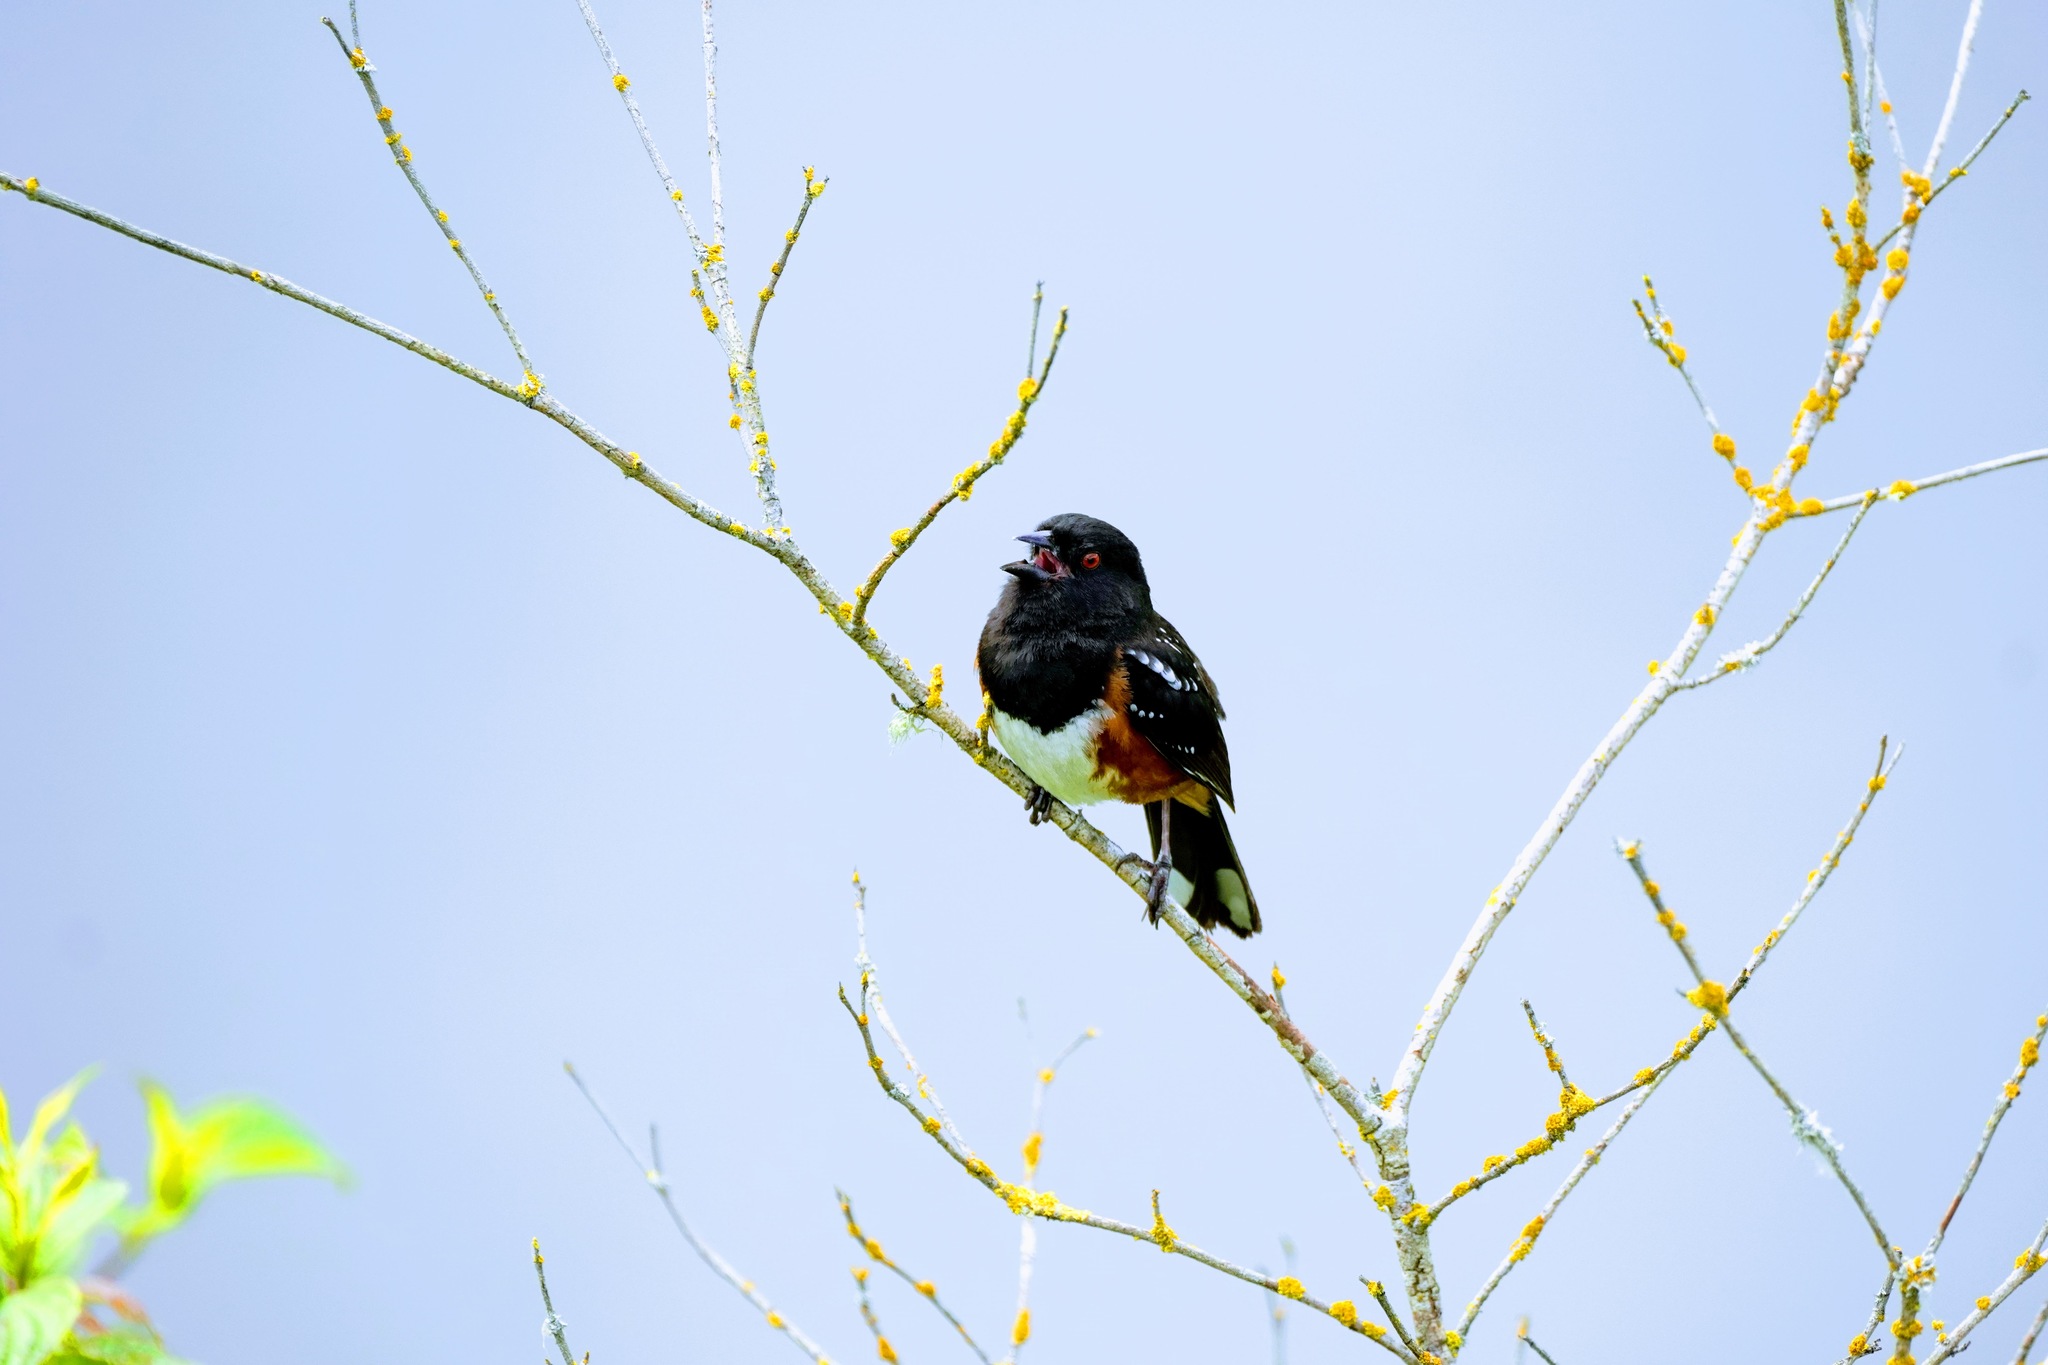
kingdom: Animalia
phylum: Chordata
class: Aves
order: Passeriformes
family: Passerellidae
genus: Pipilo
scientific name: Pipilo maculatus
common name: Spotted towhee
